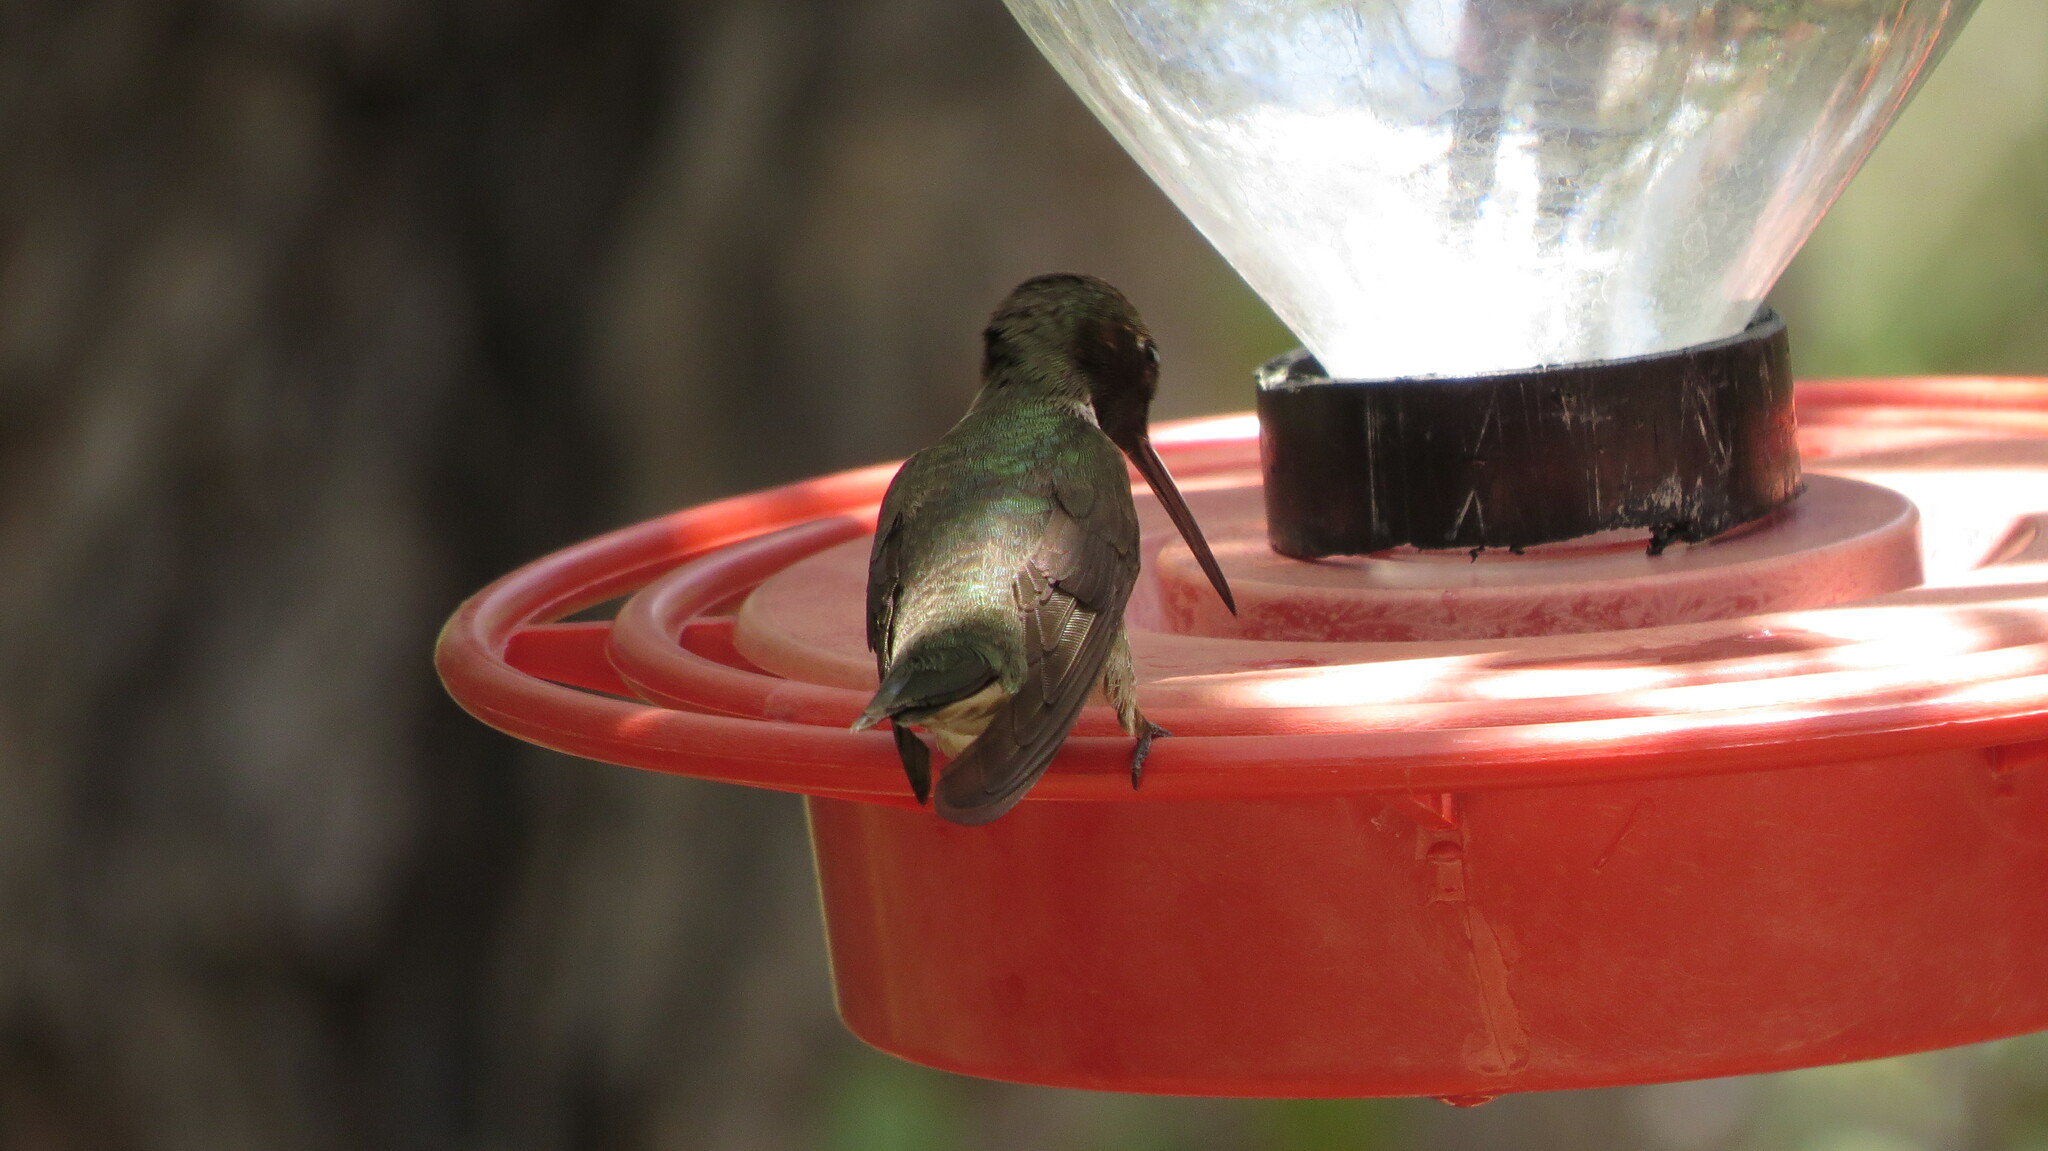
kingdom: Animalia
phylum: Chordata
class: Aves
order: Apodiformes
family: Trochilidae
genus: Cynanthus
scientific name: Cynanthus latirostris
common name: Broad-billed hummingbird
